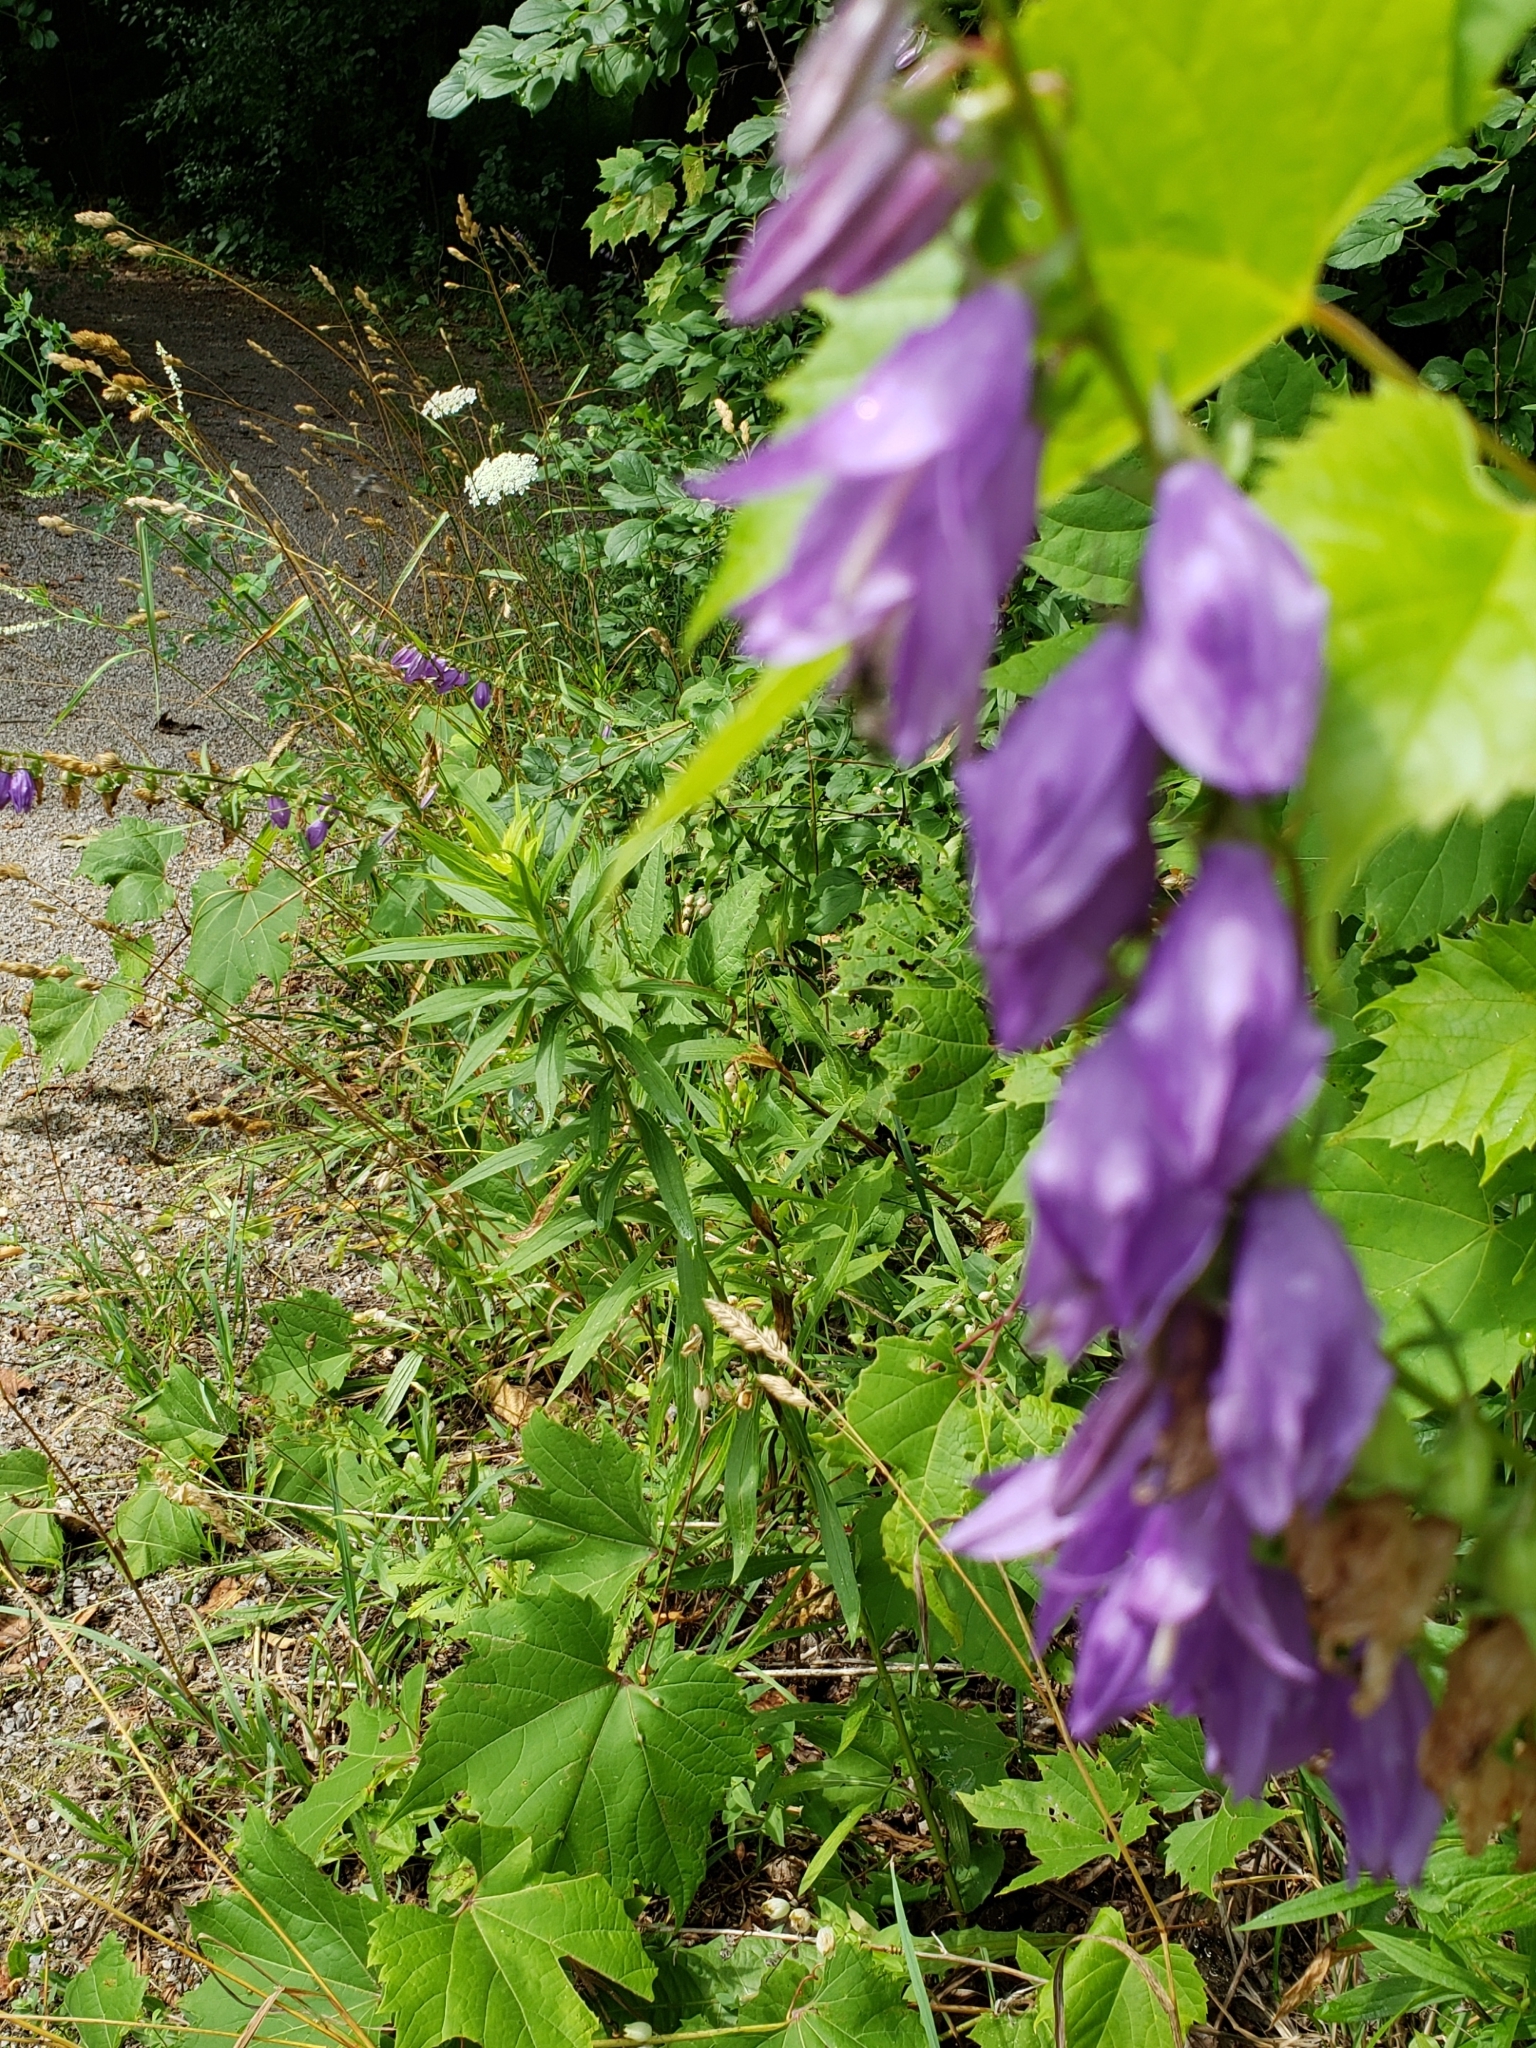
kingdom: Plantae
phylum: Tracheophyta
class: Magnoliopsida
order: Asterales
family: Campanulaceae
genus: Campanula
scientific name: Campanula rapunculoides
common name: Creeping bellflower
